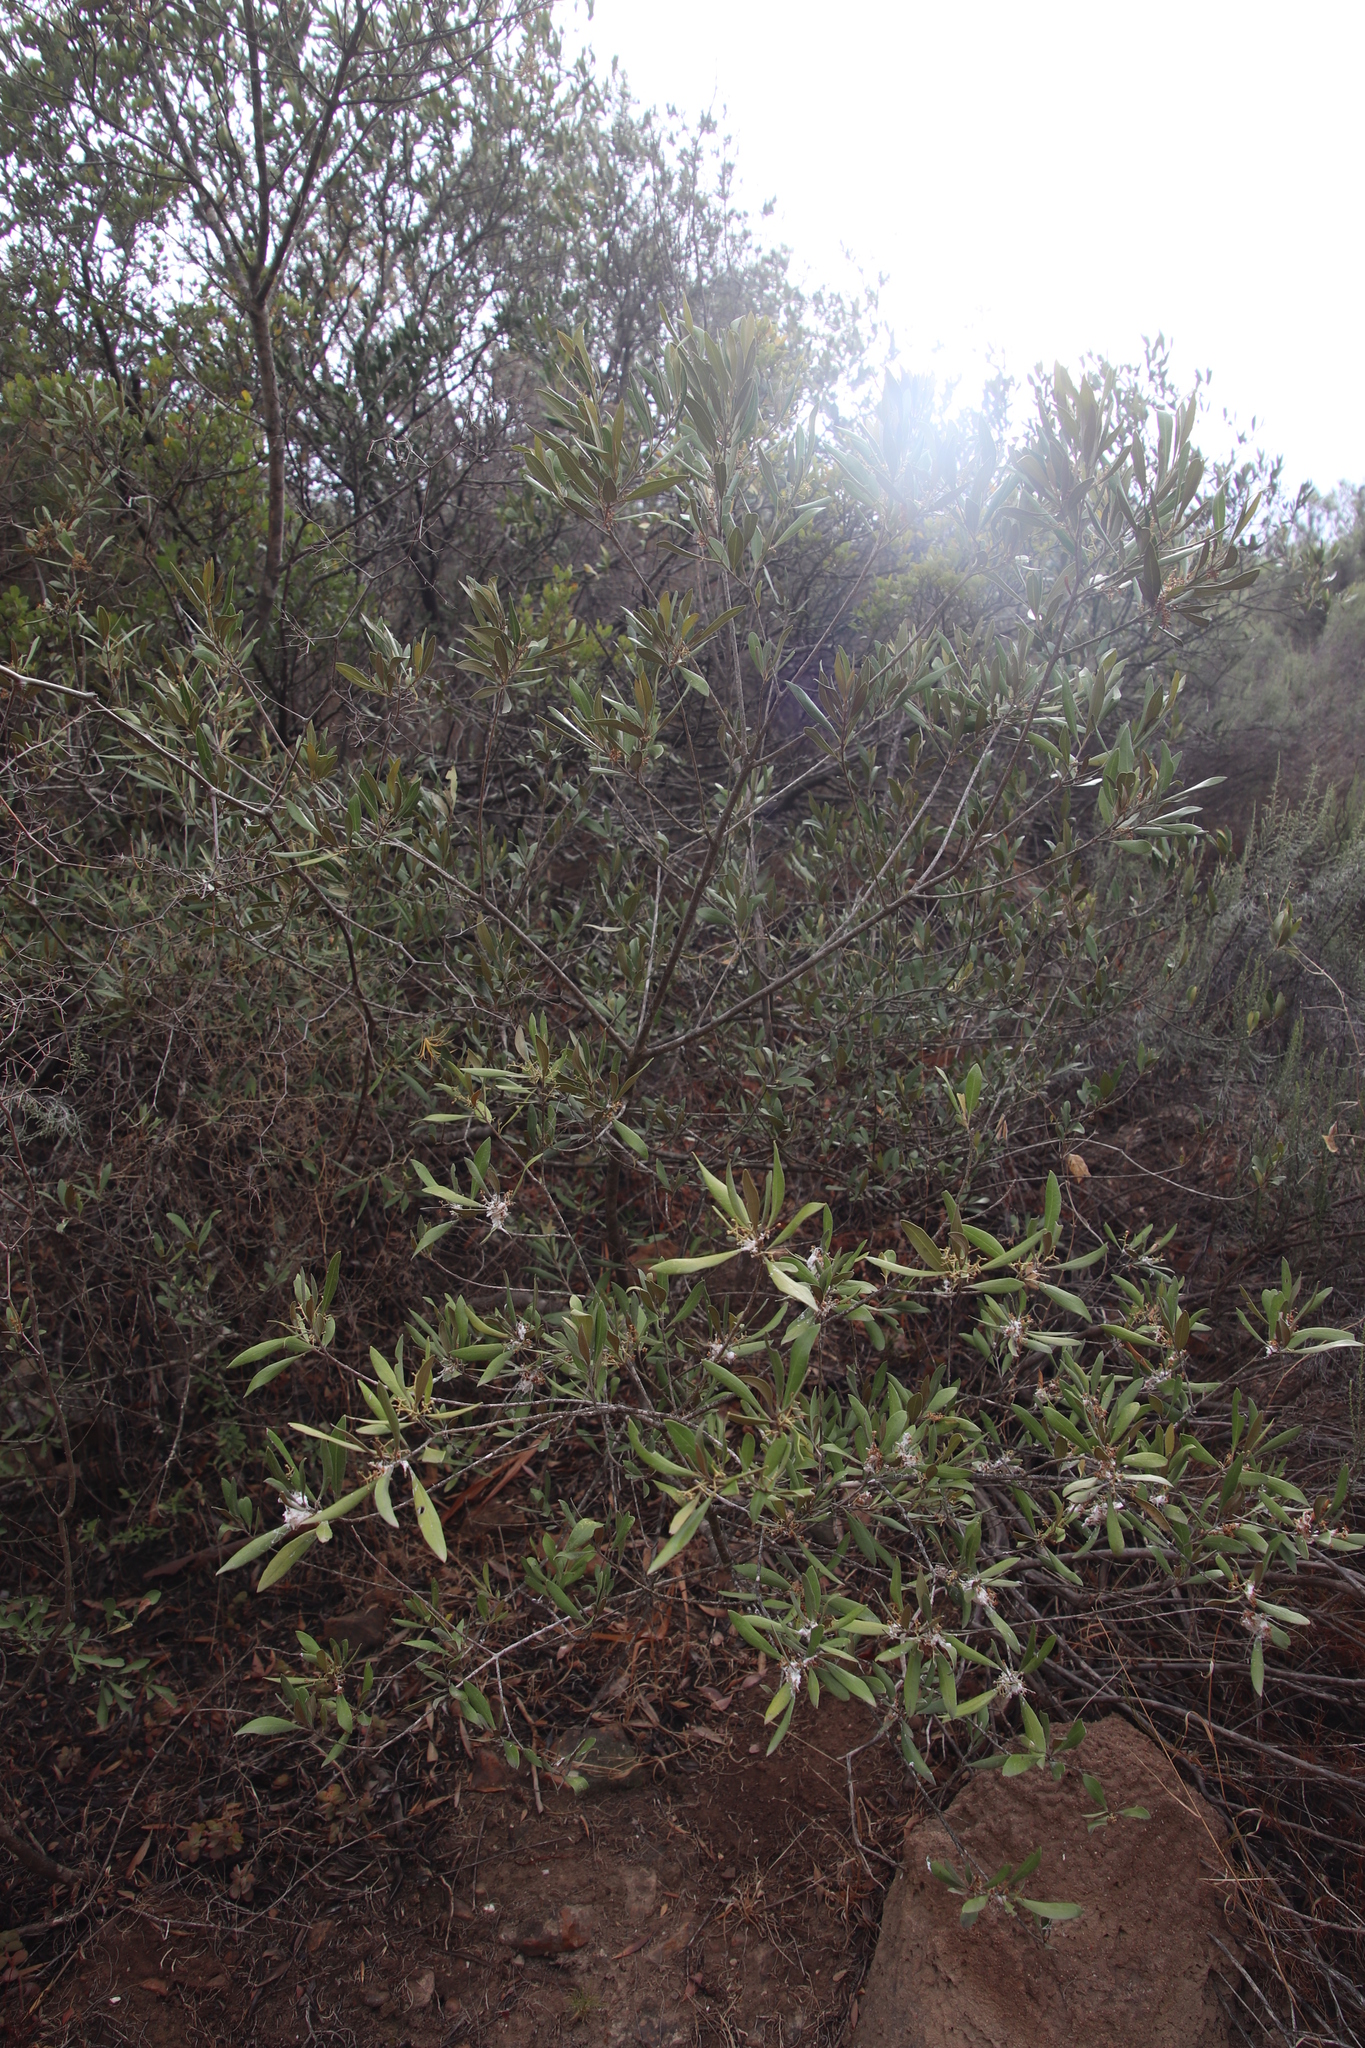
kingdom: Plantae
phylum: Tracheophyta
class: Magnoliopsida
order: Lamiales
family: Oleaceae
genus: Olea
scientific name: Olea europaea
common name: Olive
